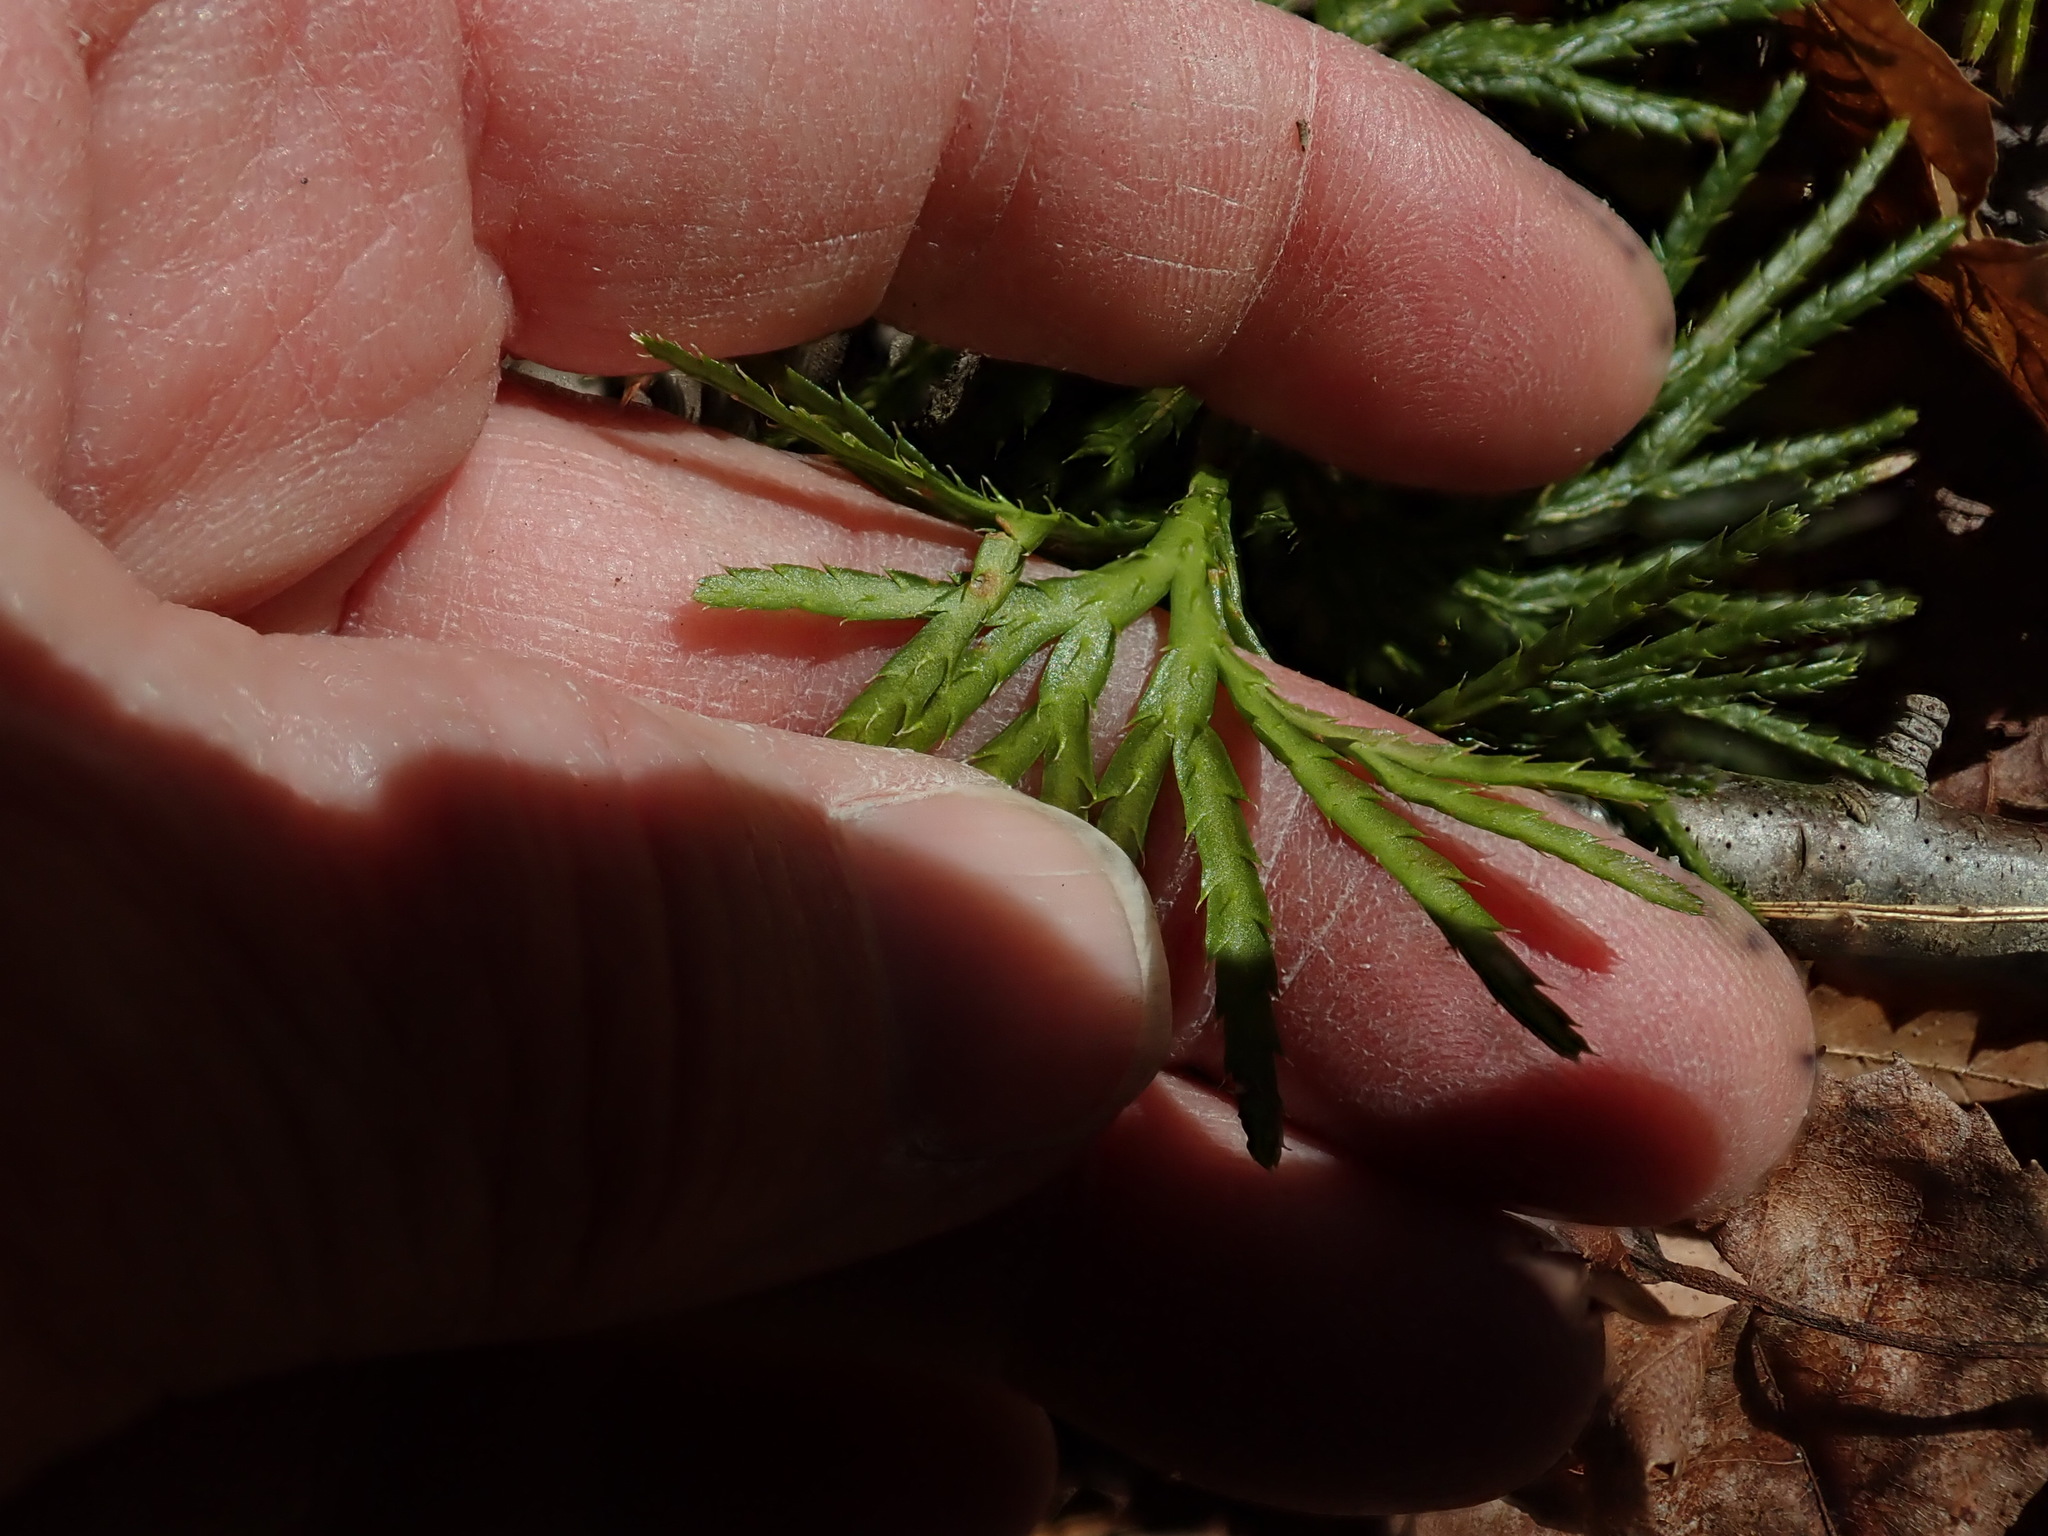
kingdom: Plantae
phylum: Tracheophyta
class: Lycopodiopsida
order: Lycopodiales
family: Lycopodiaceae
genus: Diphasiastrum
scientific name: Diphasiastrum digitatum
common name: Southern running-pine
